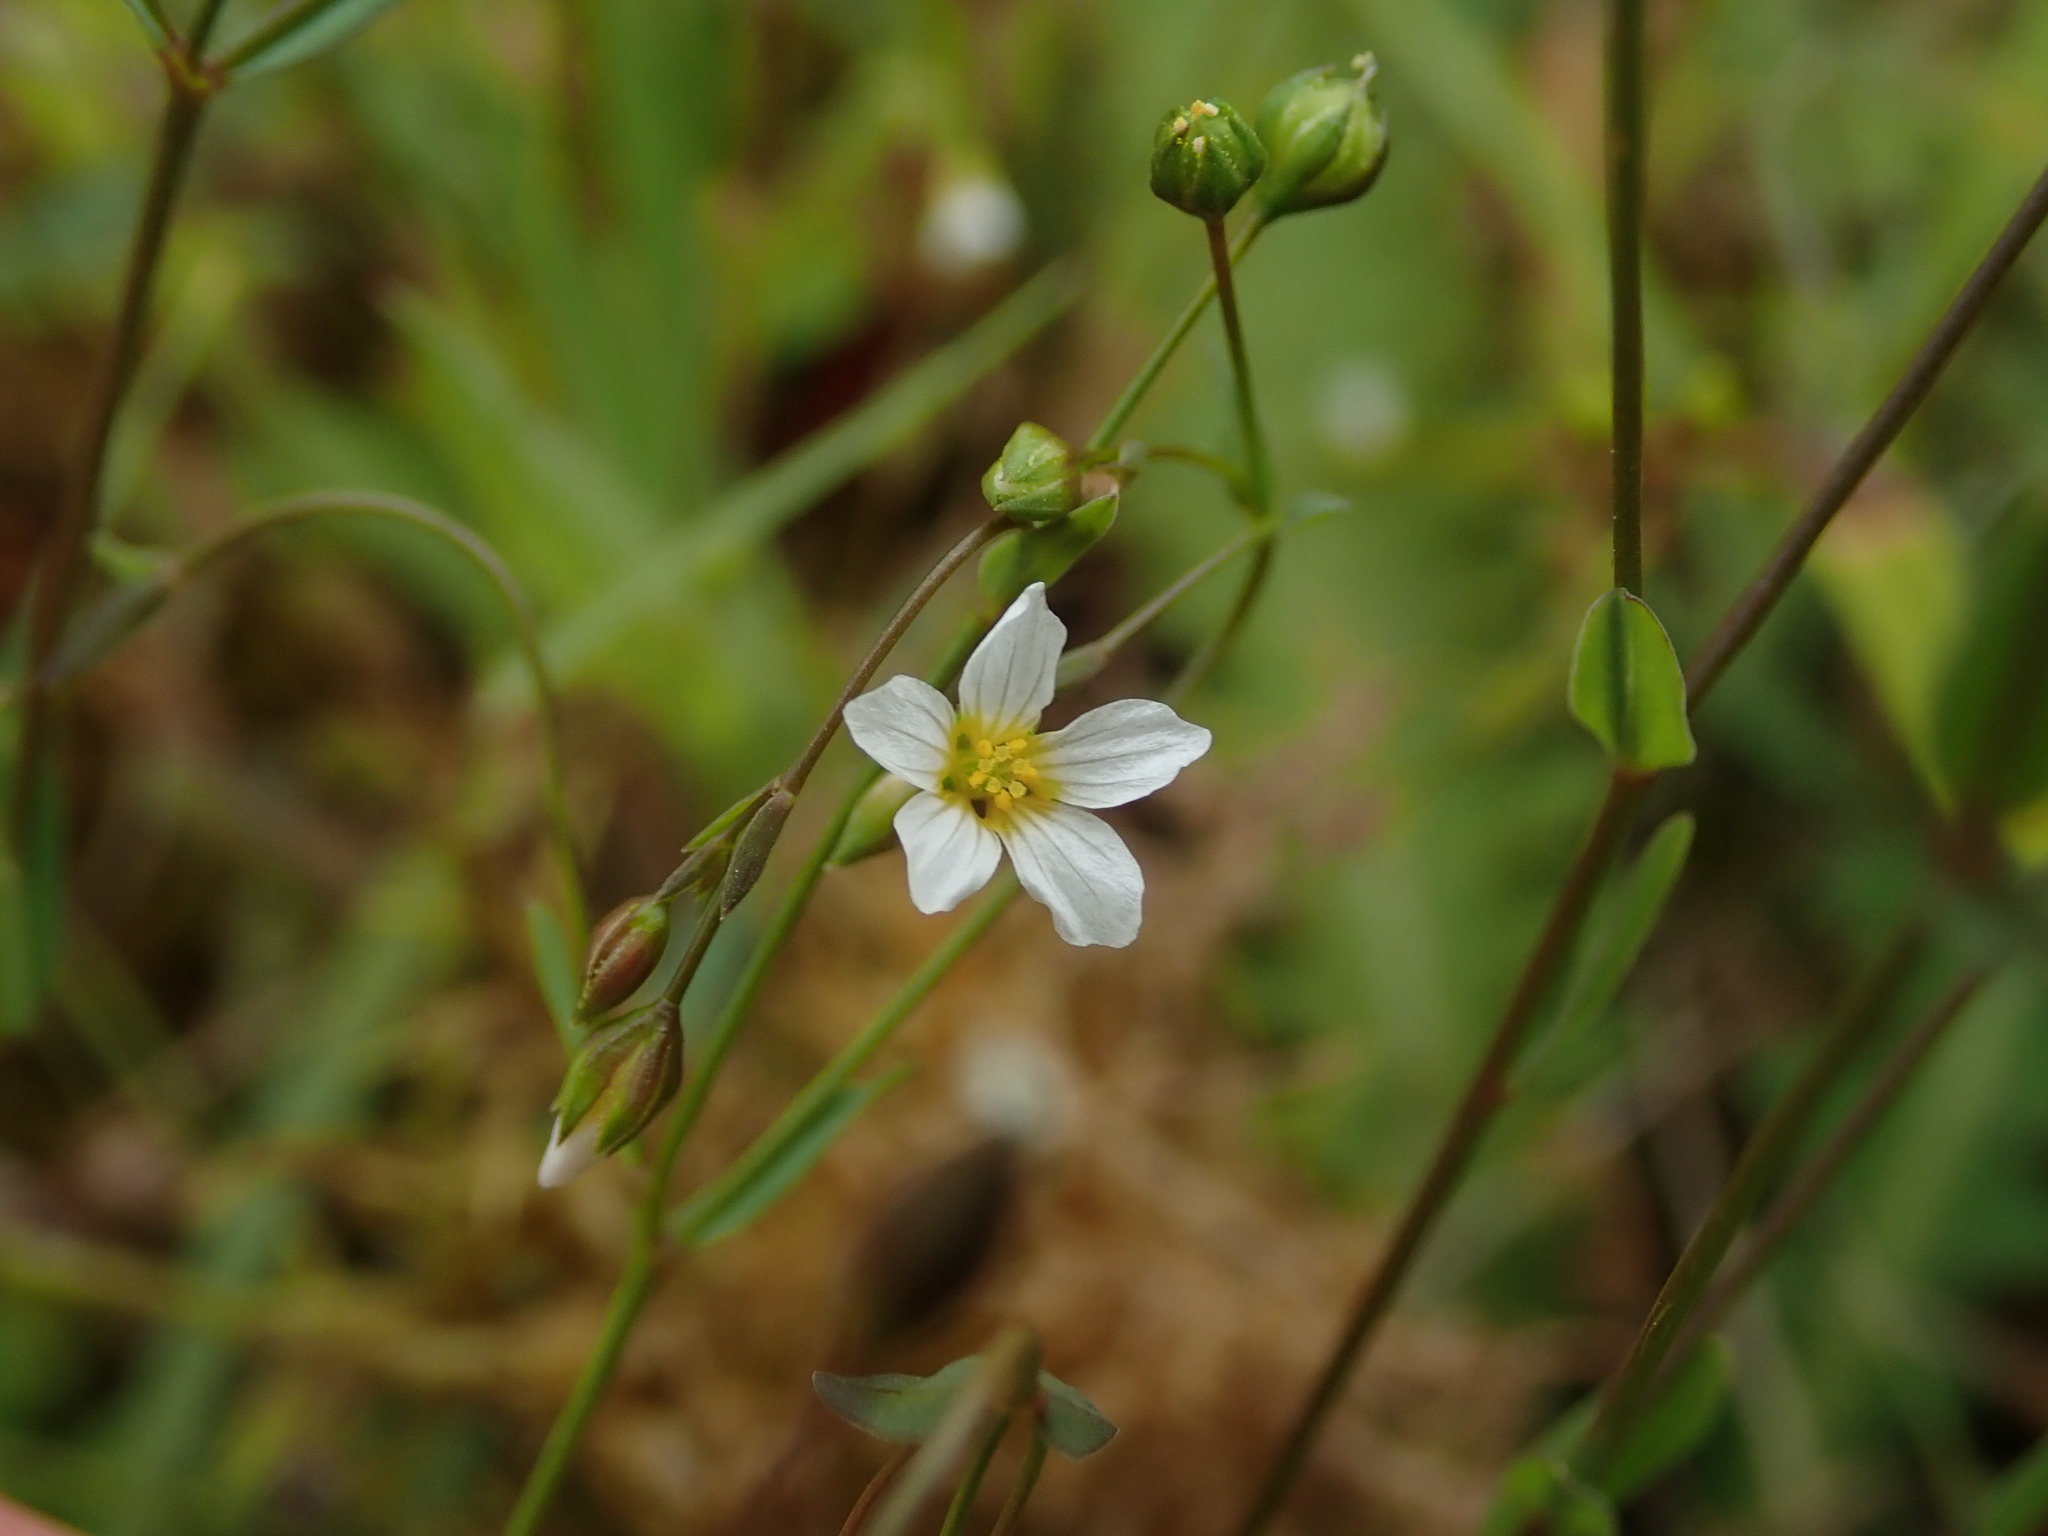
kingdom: Plantae
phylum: Tracheophyta
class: Magnoliopsida
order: Malpighiales
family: Linaceae
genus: Linum
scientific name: Linum catharticum
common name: Fairy flax
